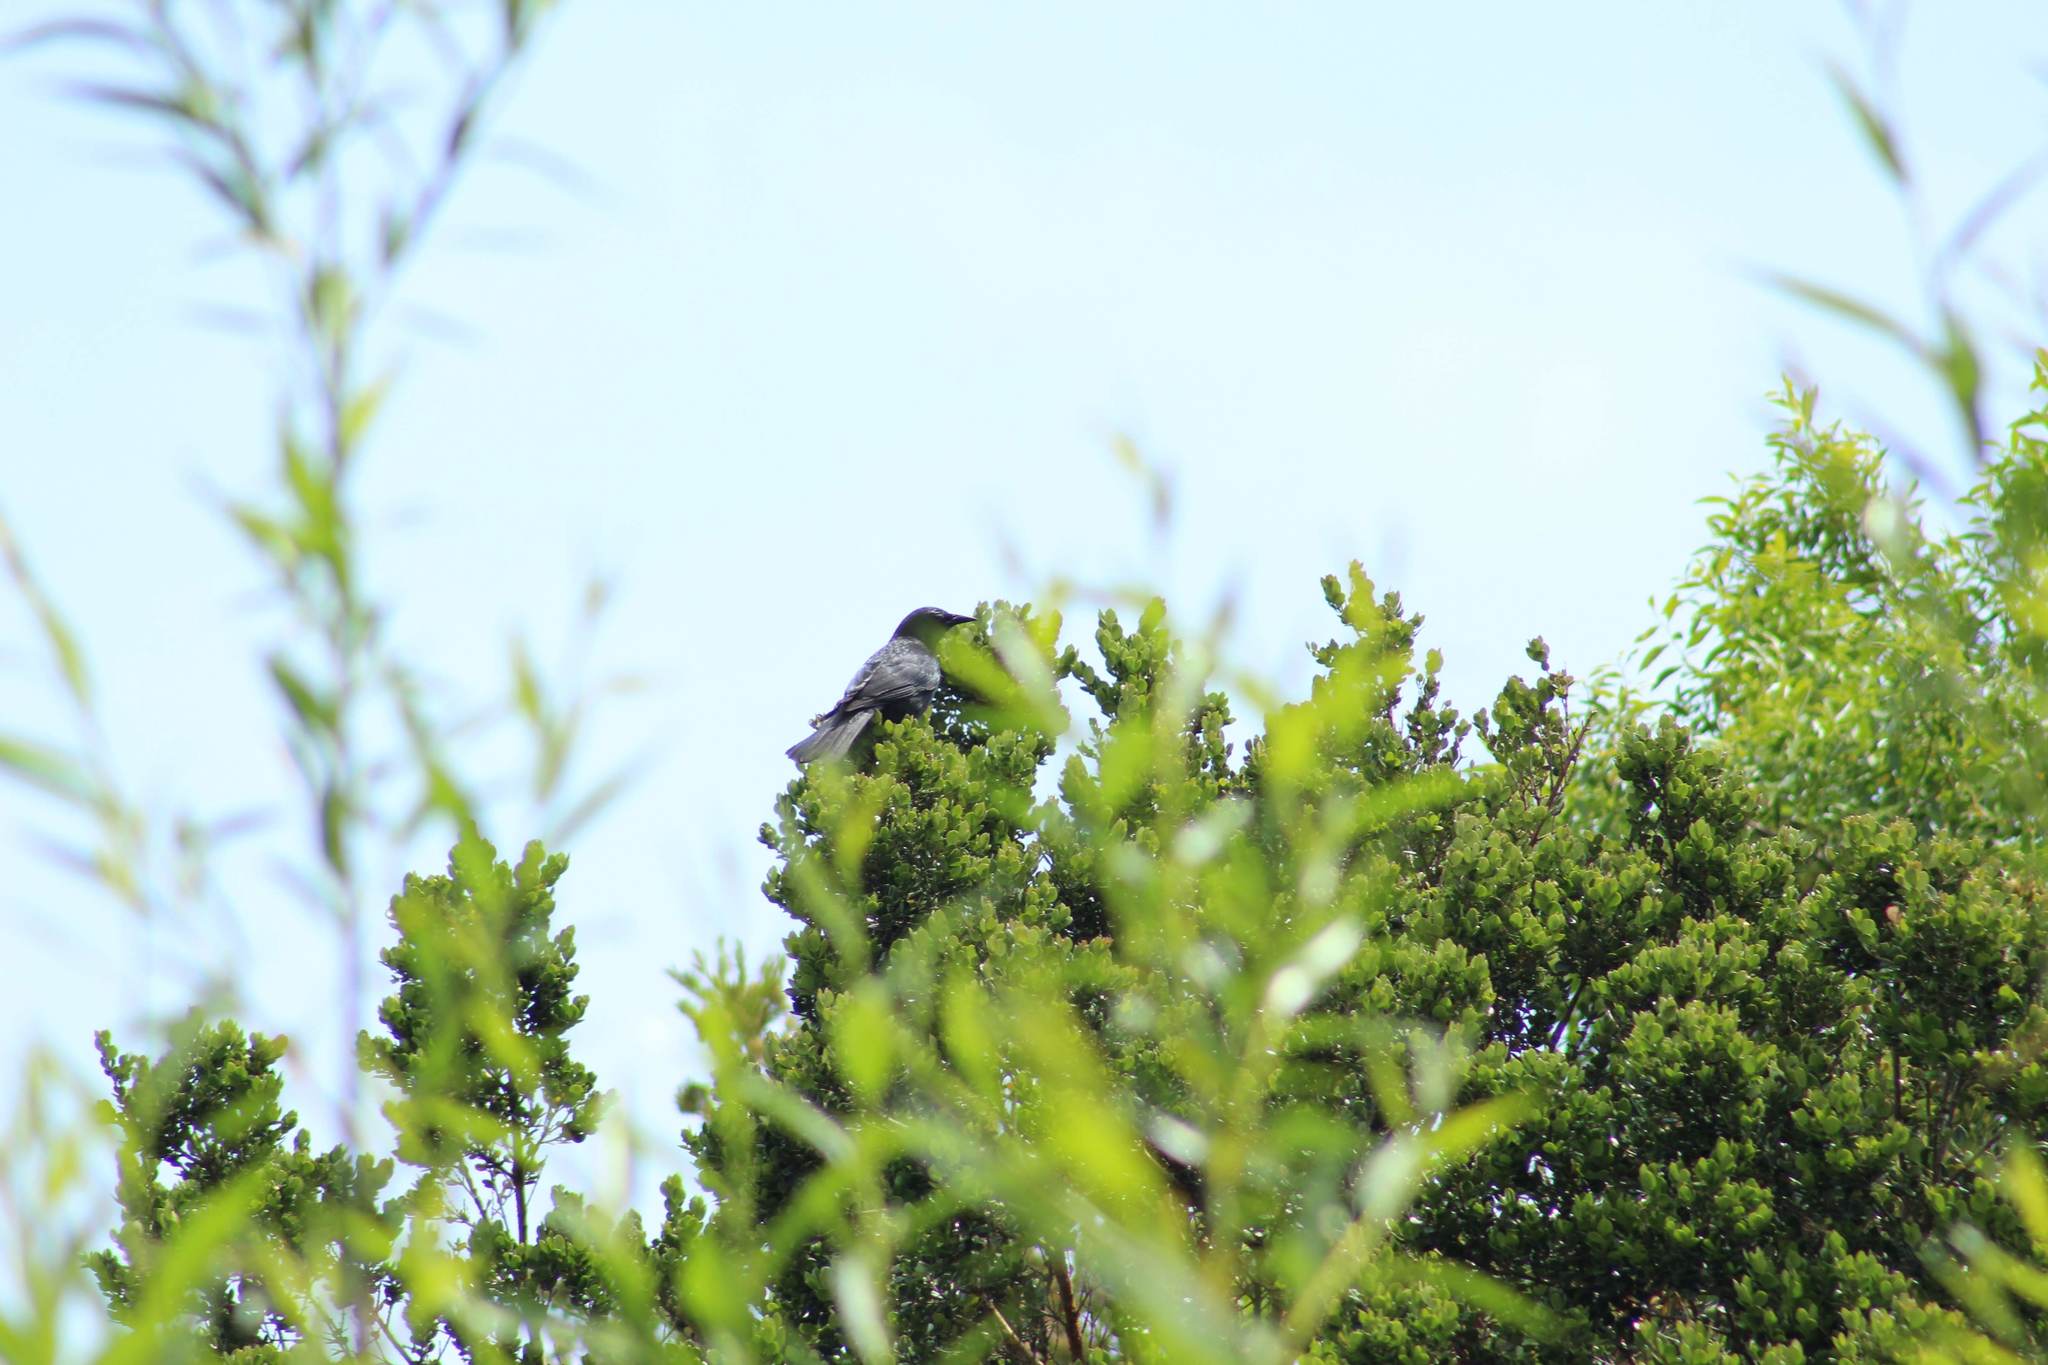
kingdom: Animalia
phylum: Chordata
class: Aves
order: Passeriformes
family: Icteridae
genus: Curaeus
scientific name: Curaeus curaeus
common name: Austral blackbird
